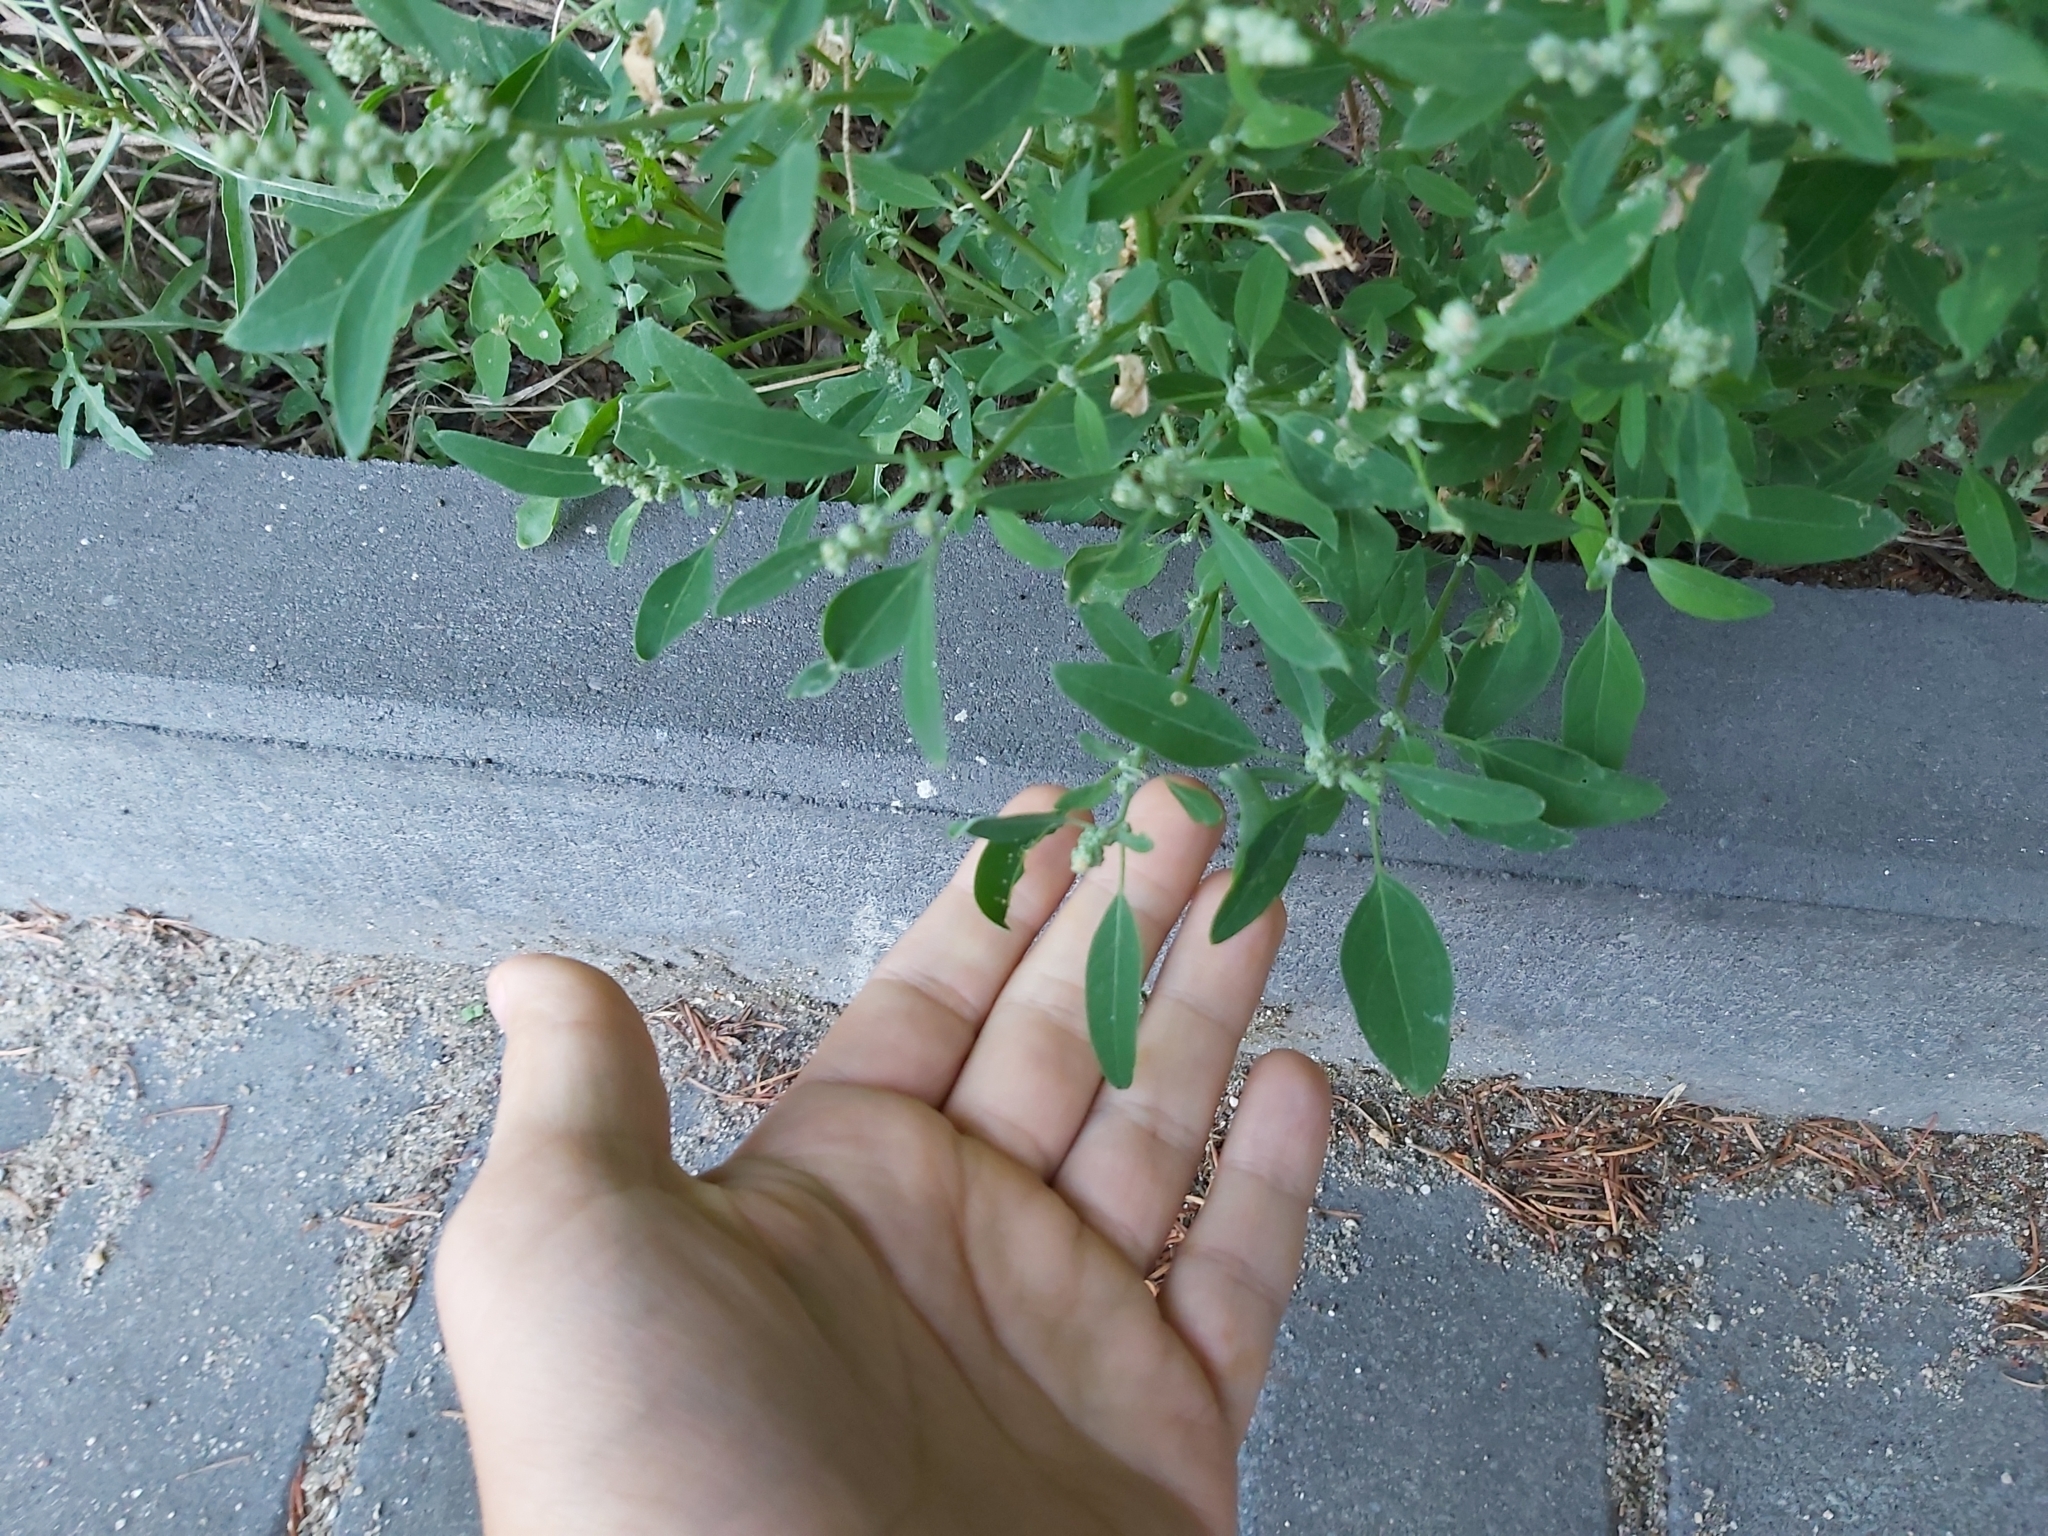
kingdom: Plantae
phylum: Tracheophyta
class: Magnoliopsida
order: Caryophyllales
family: Amaranthaceae
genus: Chenopodium
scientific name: Chenopodium album
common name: Fat-hen
